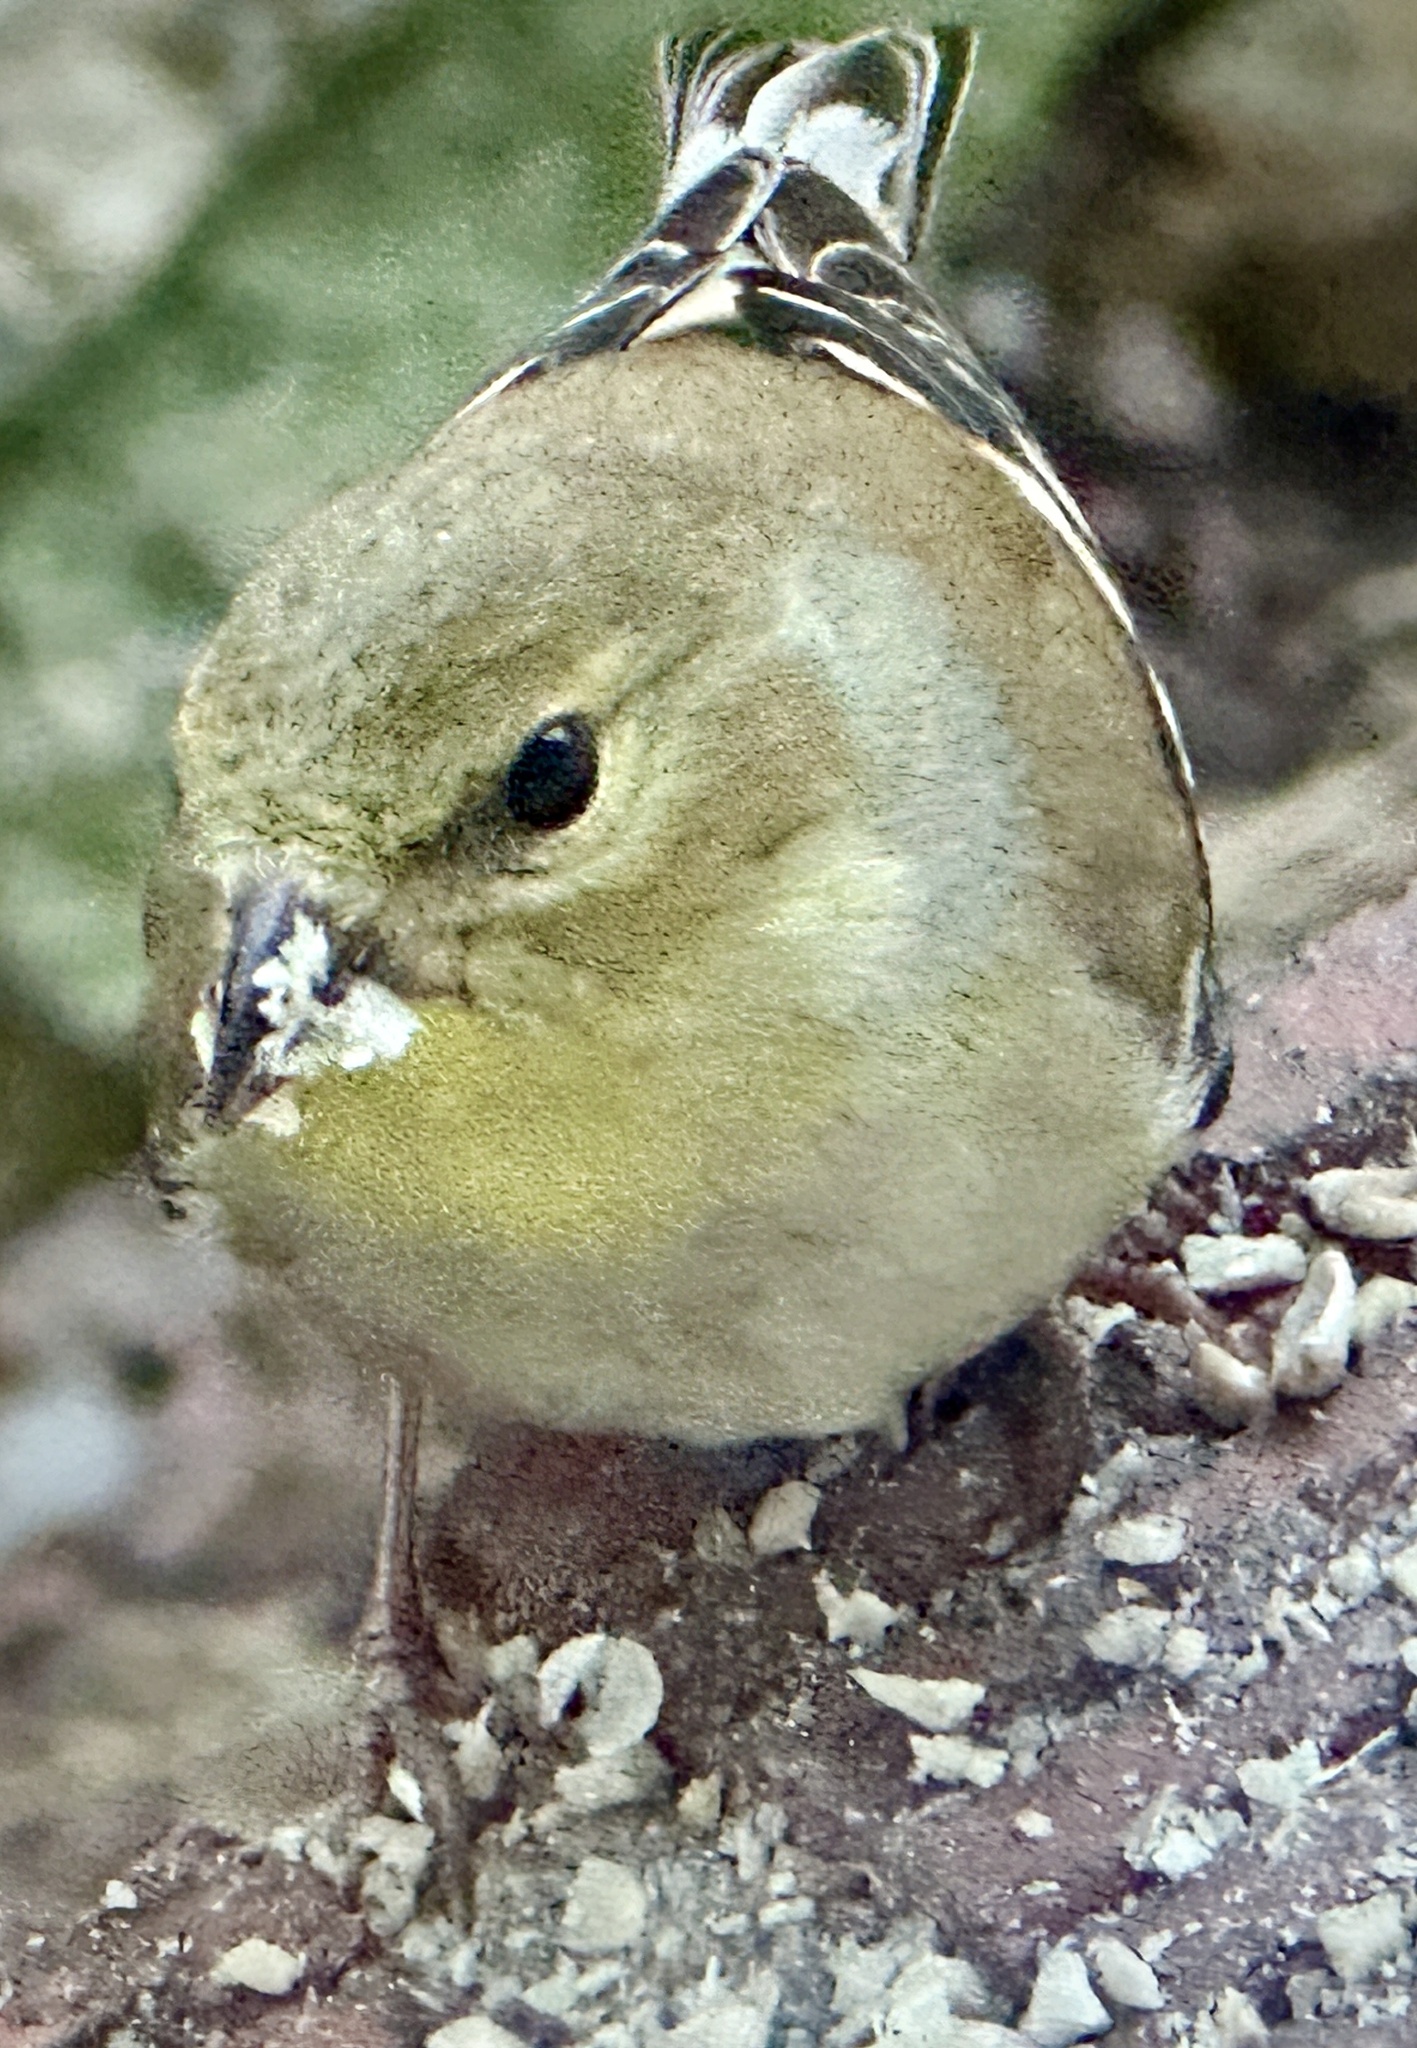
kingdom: Animalia
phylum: Chordata
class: Aves
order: Passeriformes
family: Fringillidae
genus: Spinus
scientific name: Spinus tristis
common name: American goldfinch
